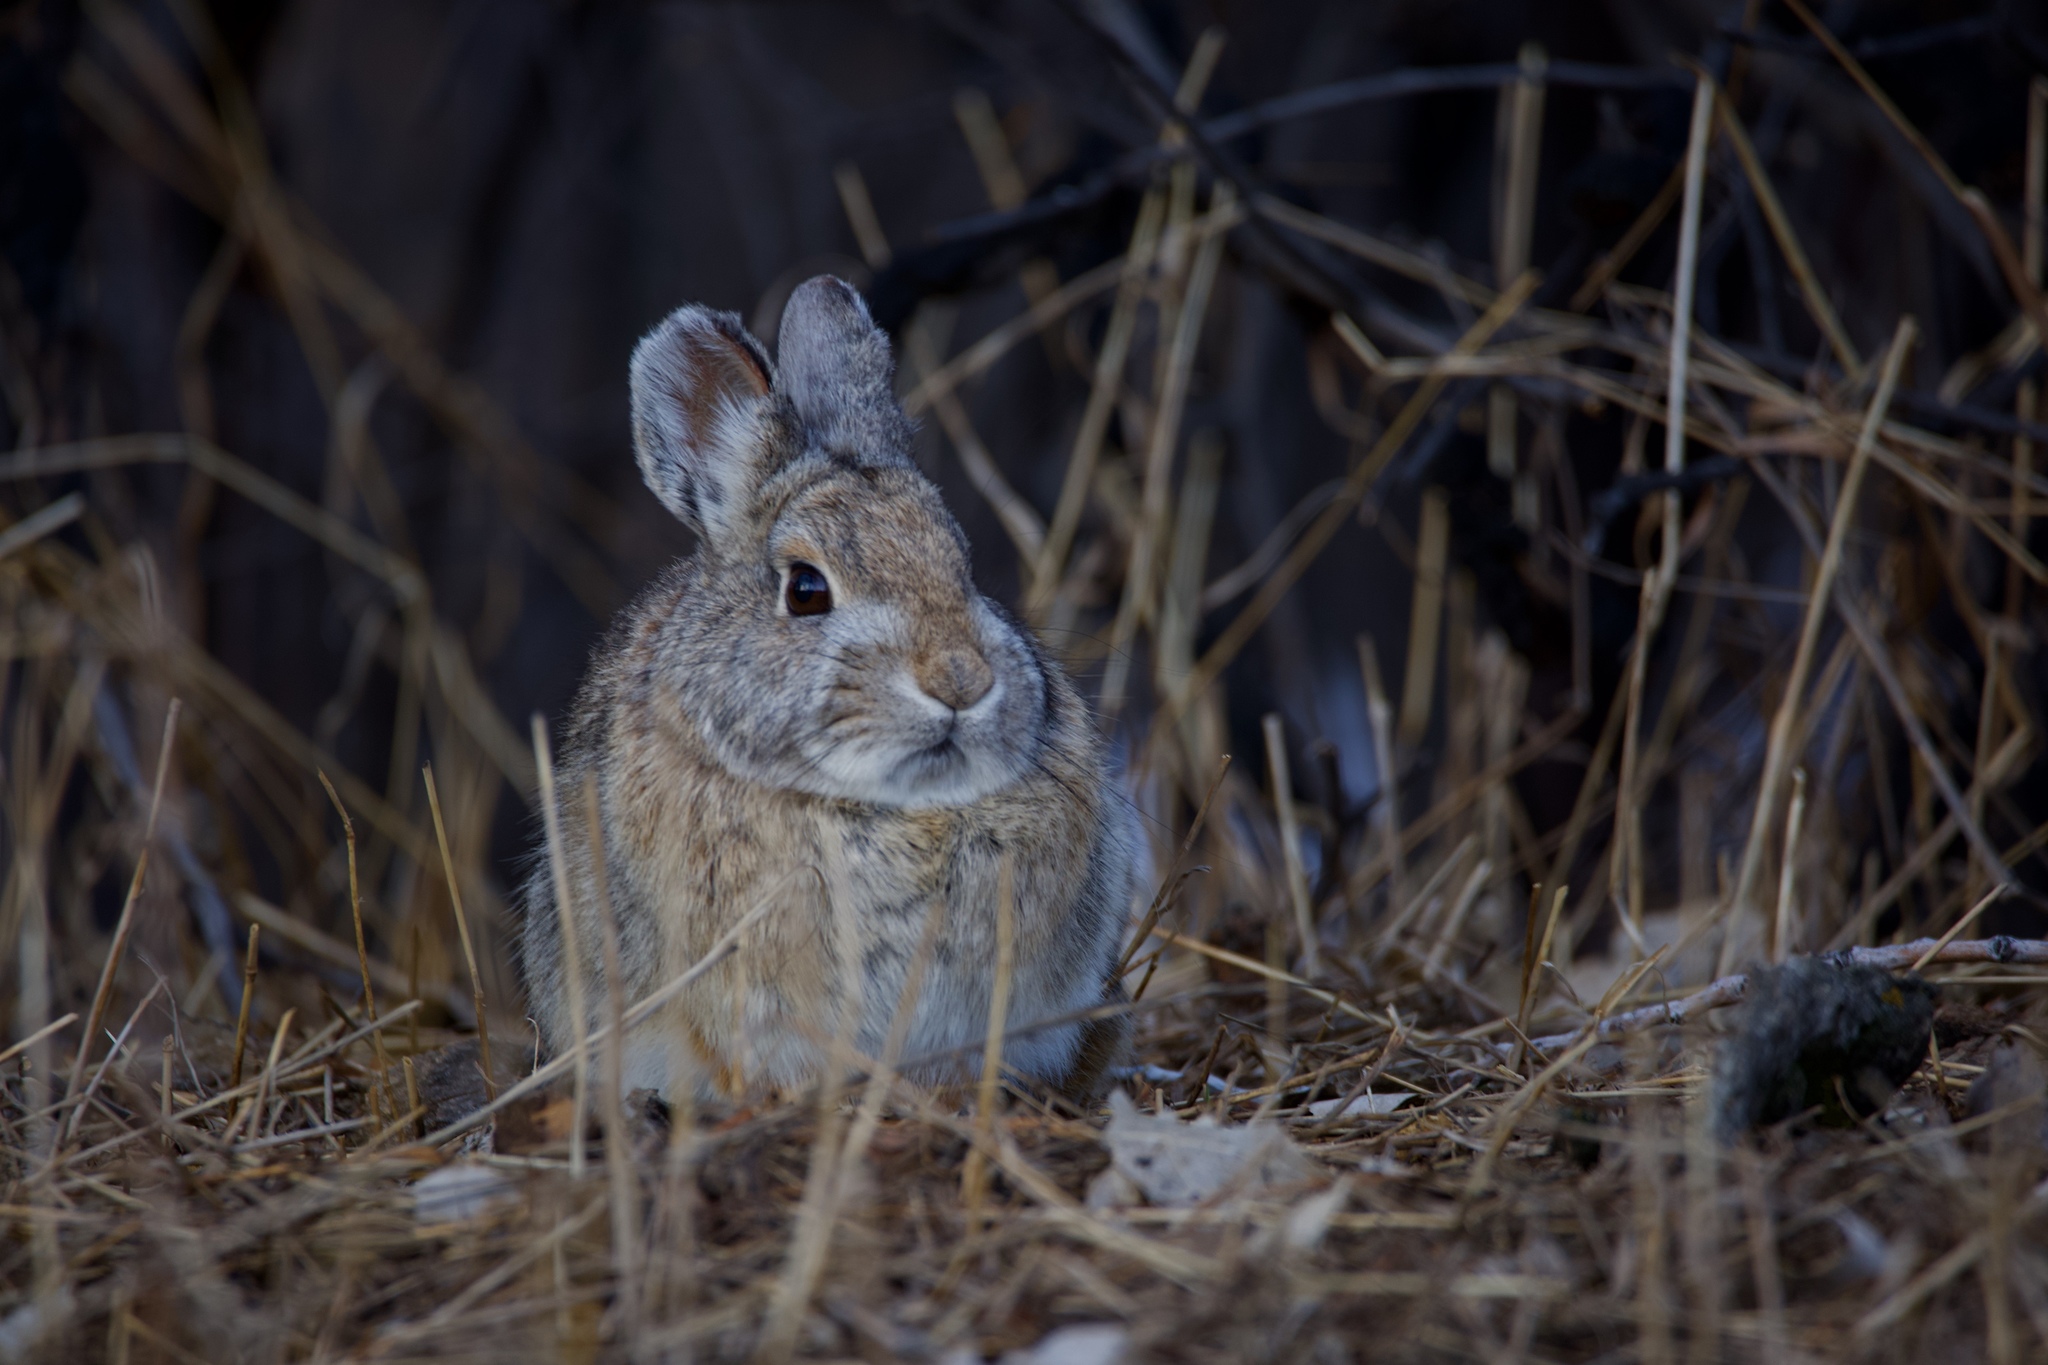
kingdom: Animalia
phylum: Chordata
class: Mammalia
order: Lagomorpha
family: Leporidae
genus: Sylvilagus
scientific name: Sylvilagus nuttallii
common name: Mountain cottontail
